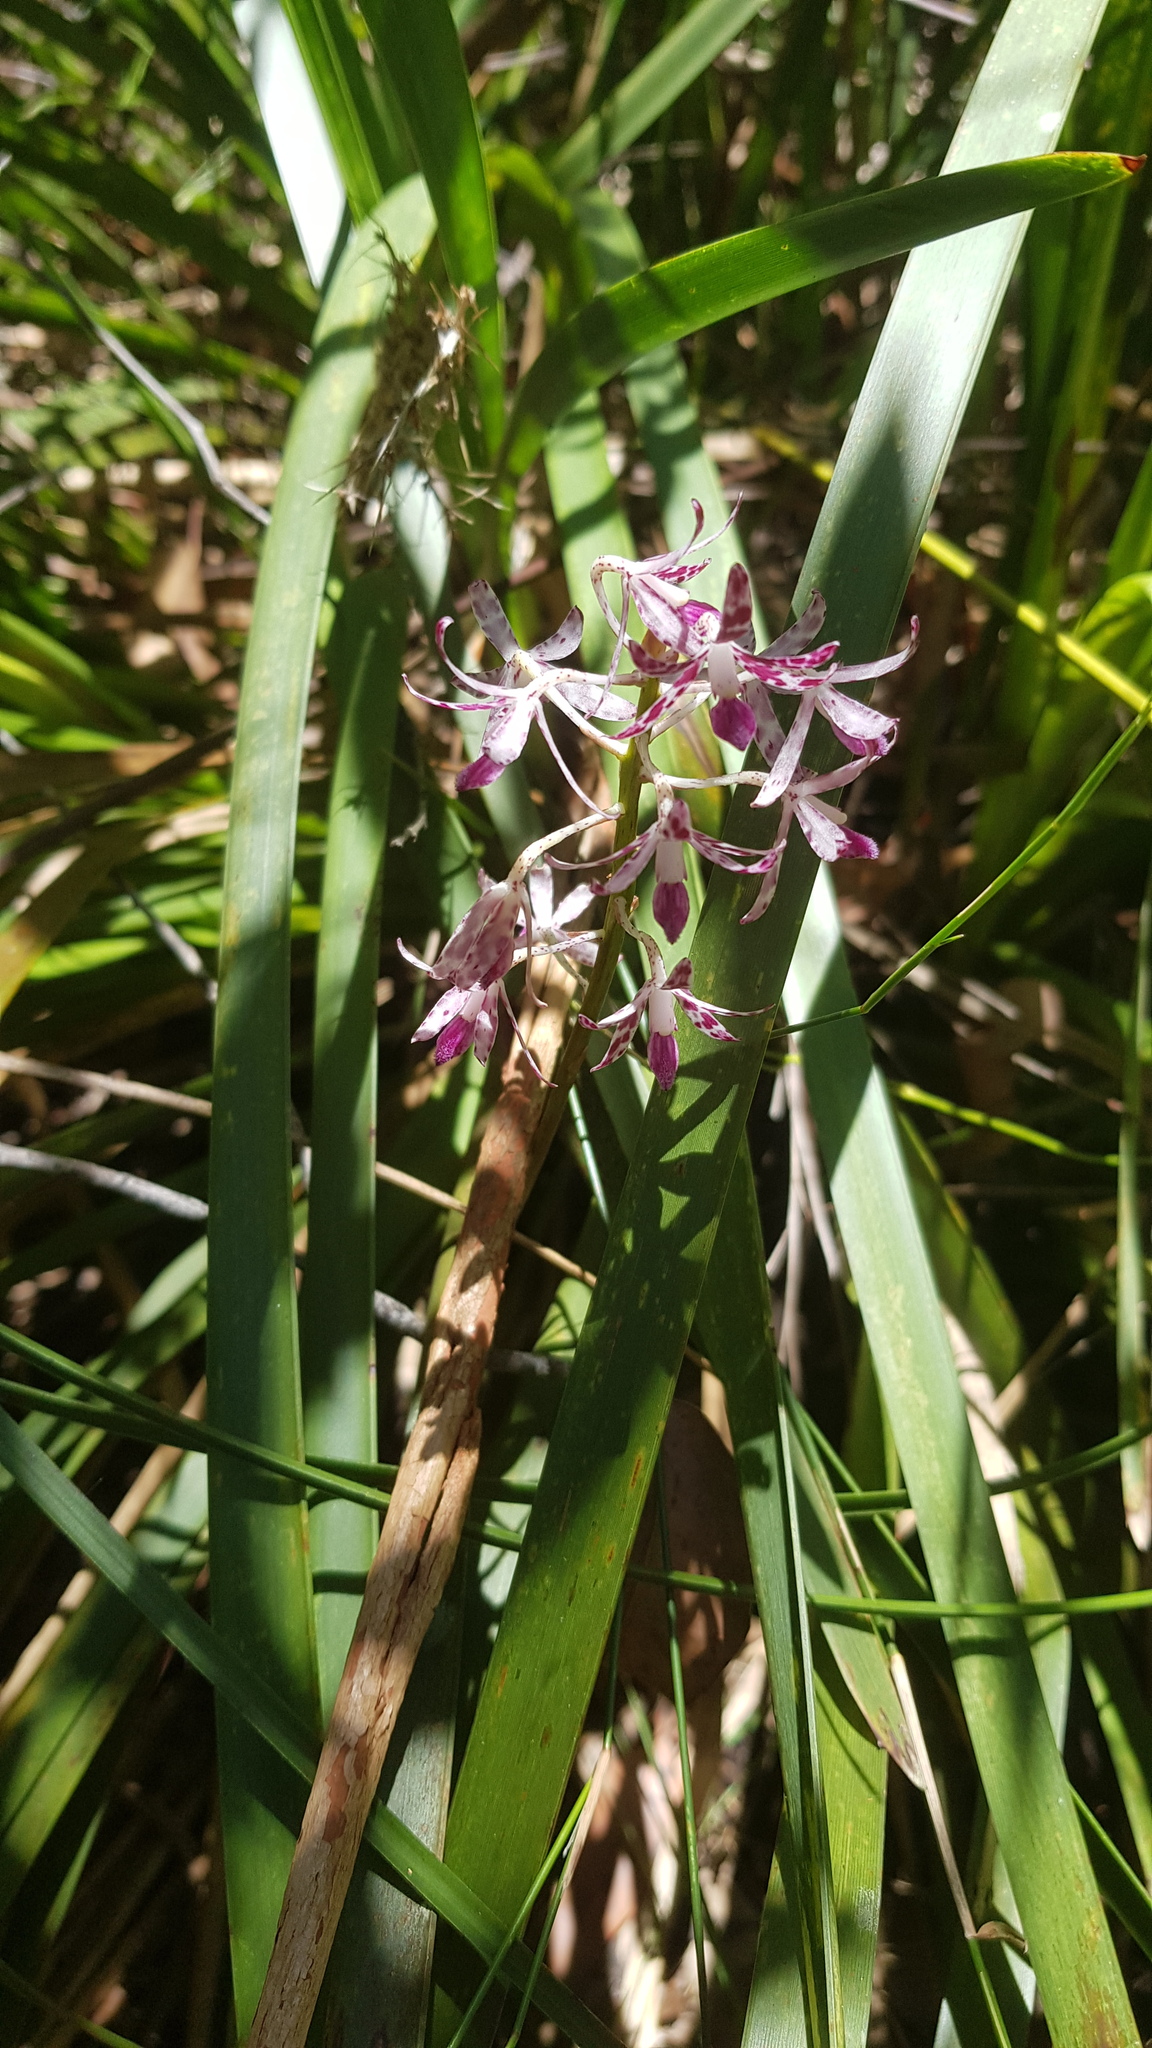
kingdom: Plantae
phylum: Tracheophyta
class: Liliopsida
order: Asparagales
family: Orchidaceae
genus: Dipodium
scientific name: Dipodium variegatum
